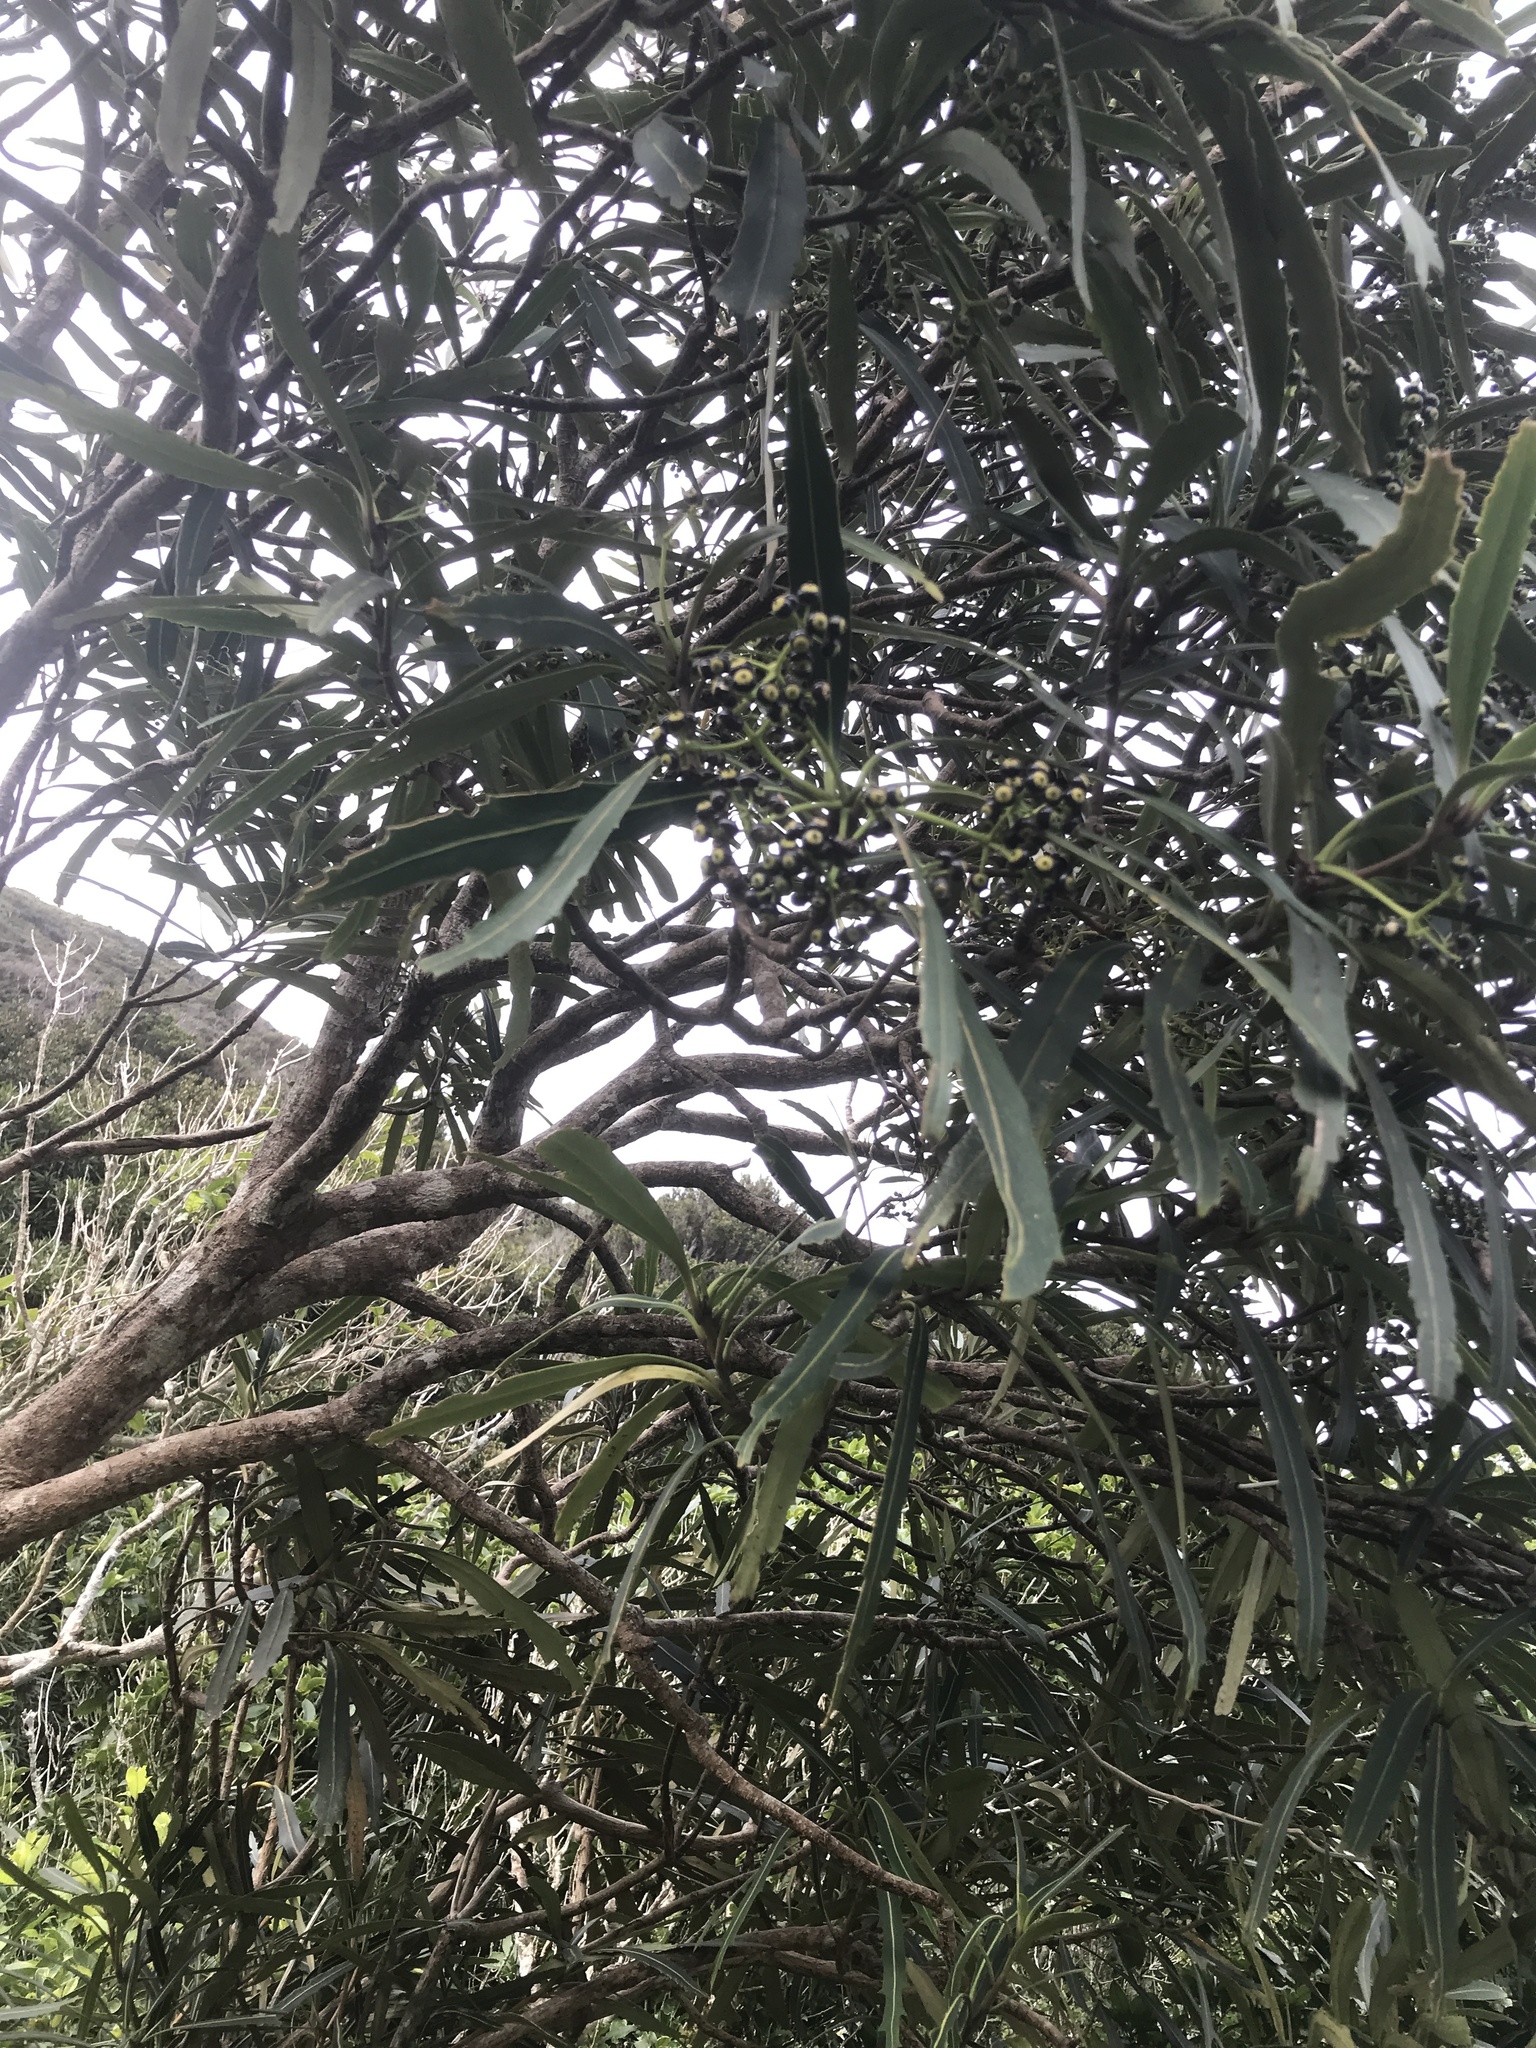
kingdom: Plantae
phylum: Tracheophyta
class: Magnoliopsida
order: Apiales
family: Araliaceae
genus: Pseudopanax
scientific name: Pseudopanax crassifolius
